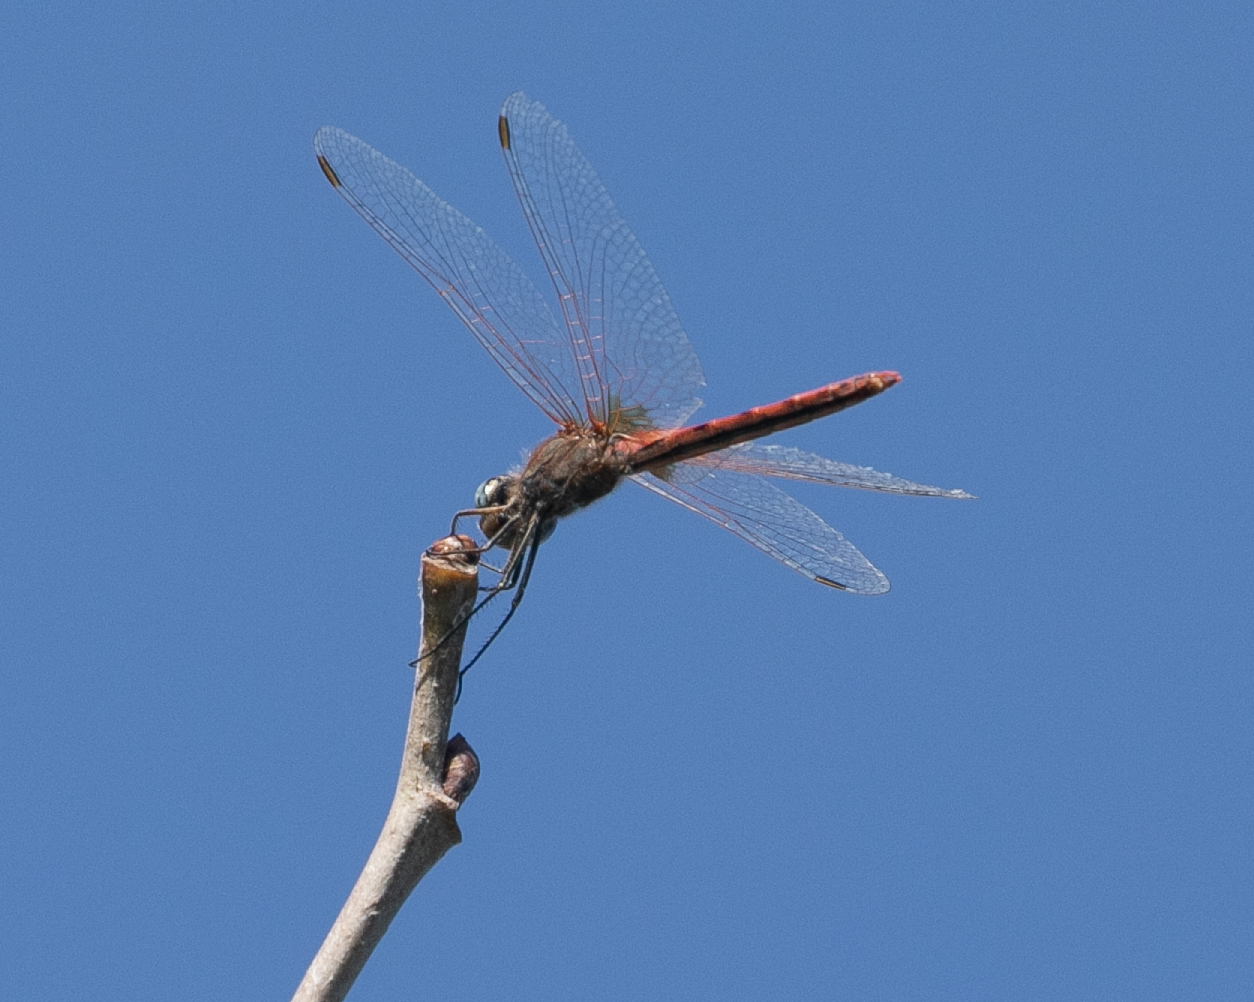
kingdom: Animalia
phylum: Arthropoda
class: Insecta
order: Odonata
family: Libellulidae
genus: Sympetrum
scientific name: Sympetrum fonscolombii
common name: Red-veined darter
